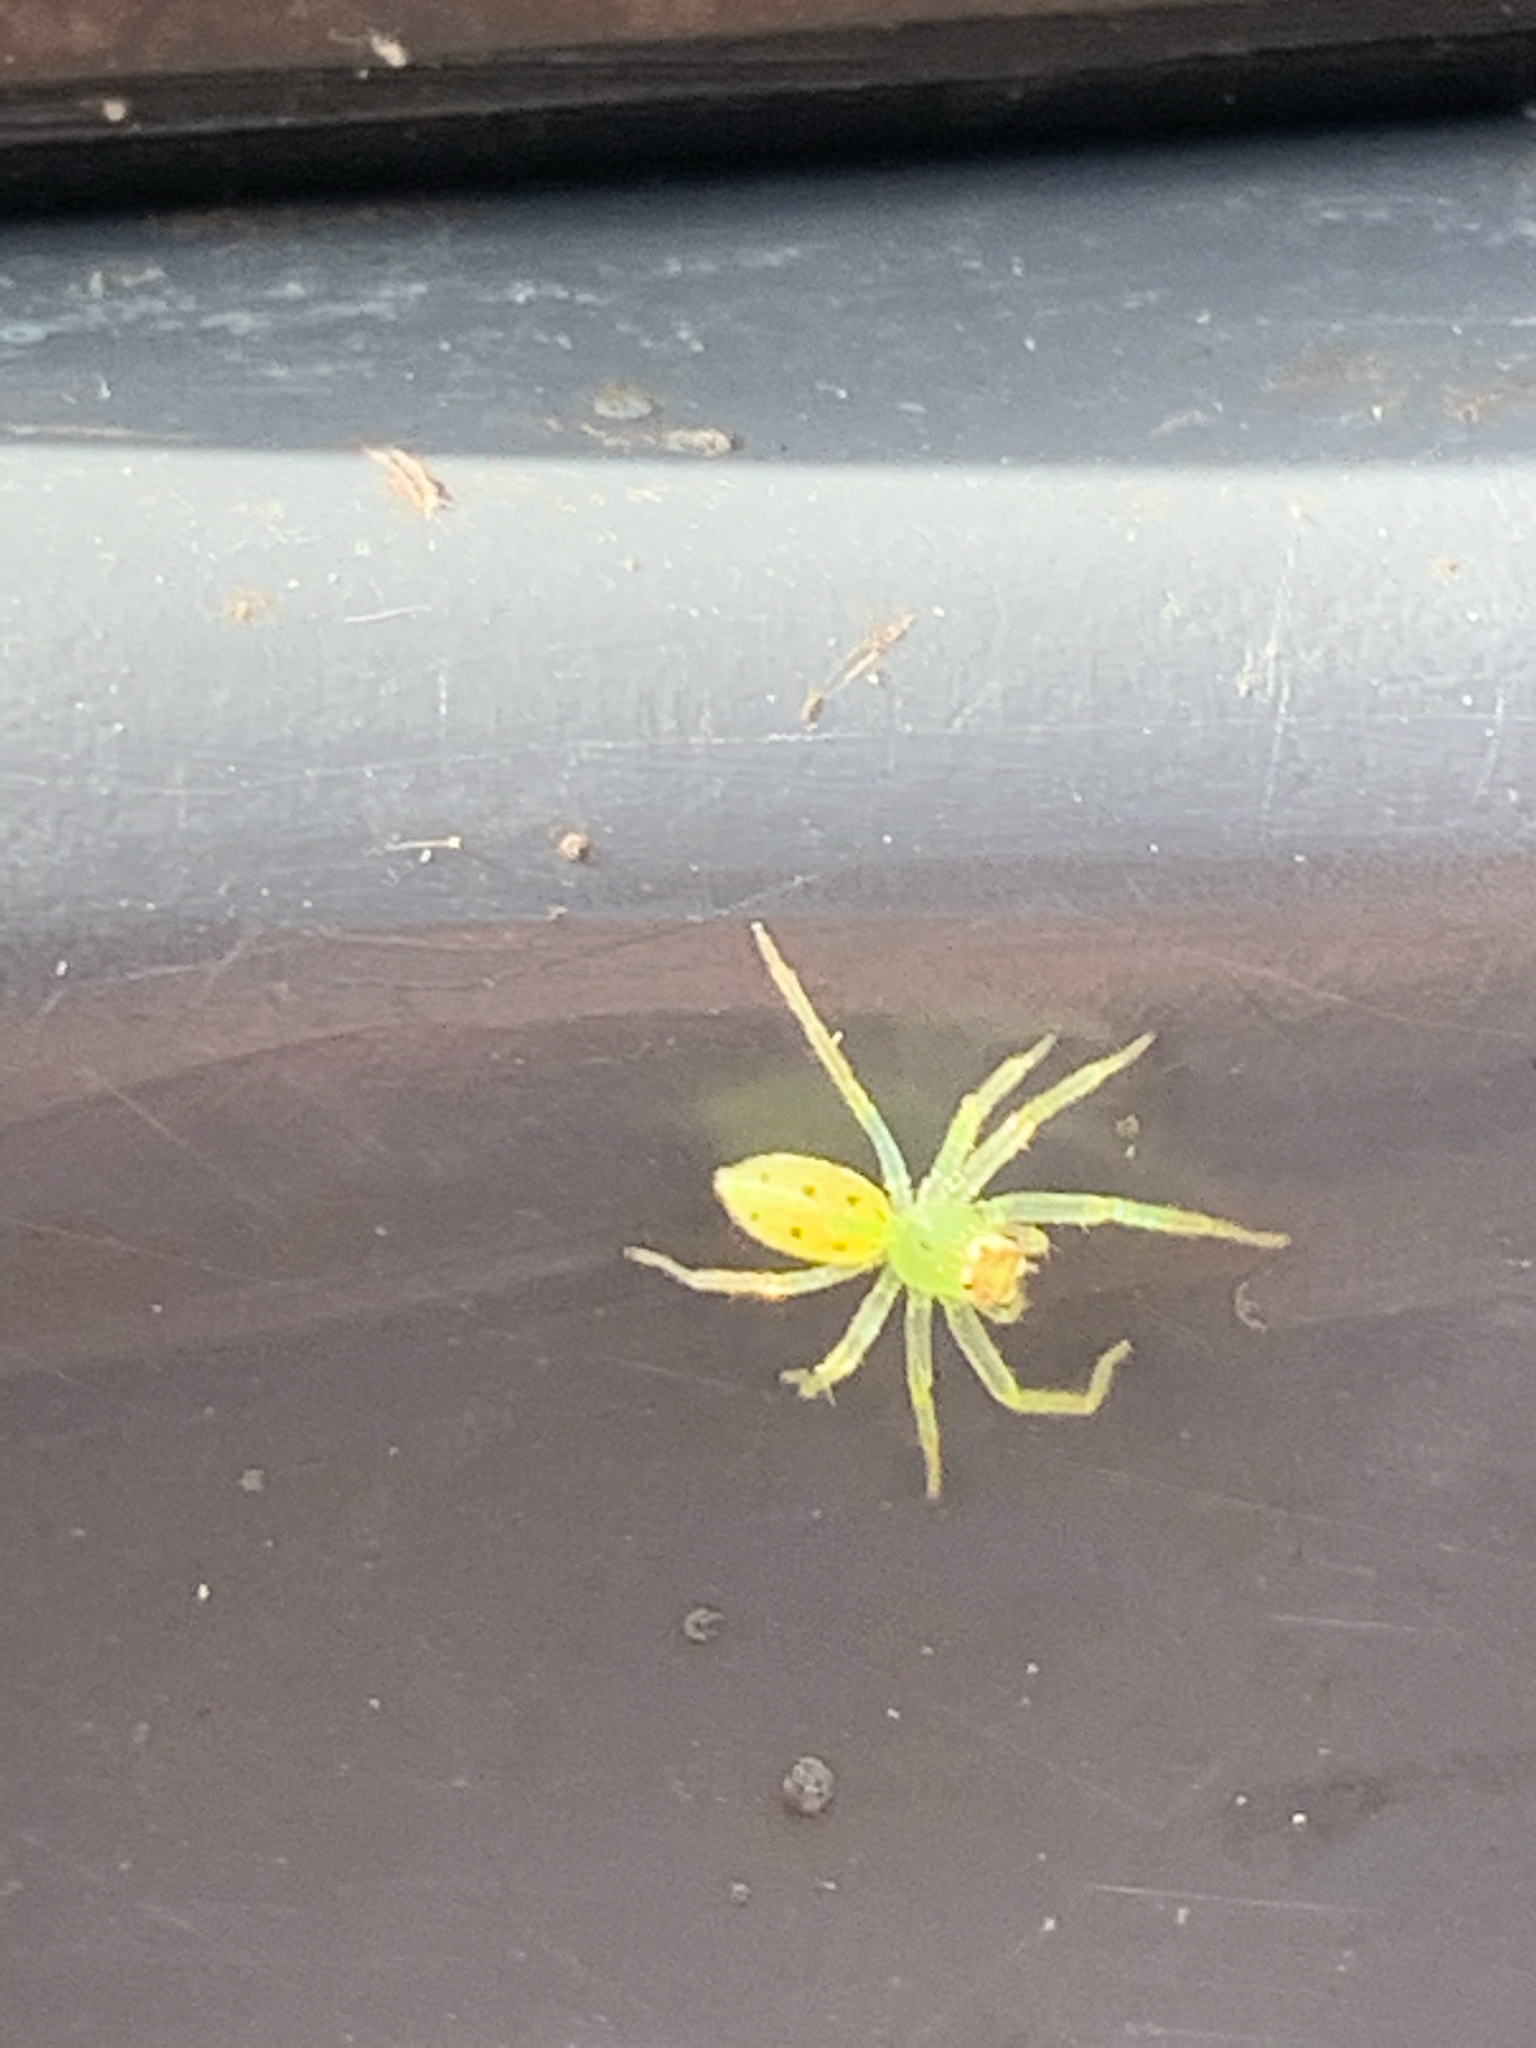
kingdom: Animalia
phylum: Arthropoda
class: Arachnida
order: Araneae
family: Salticidae
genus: Lyssomanes
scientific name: Lyssomanes viridis
